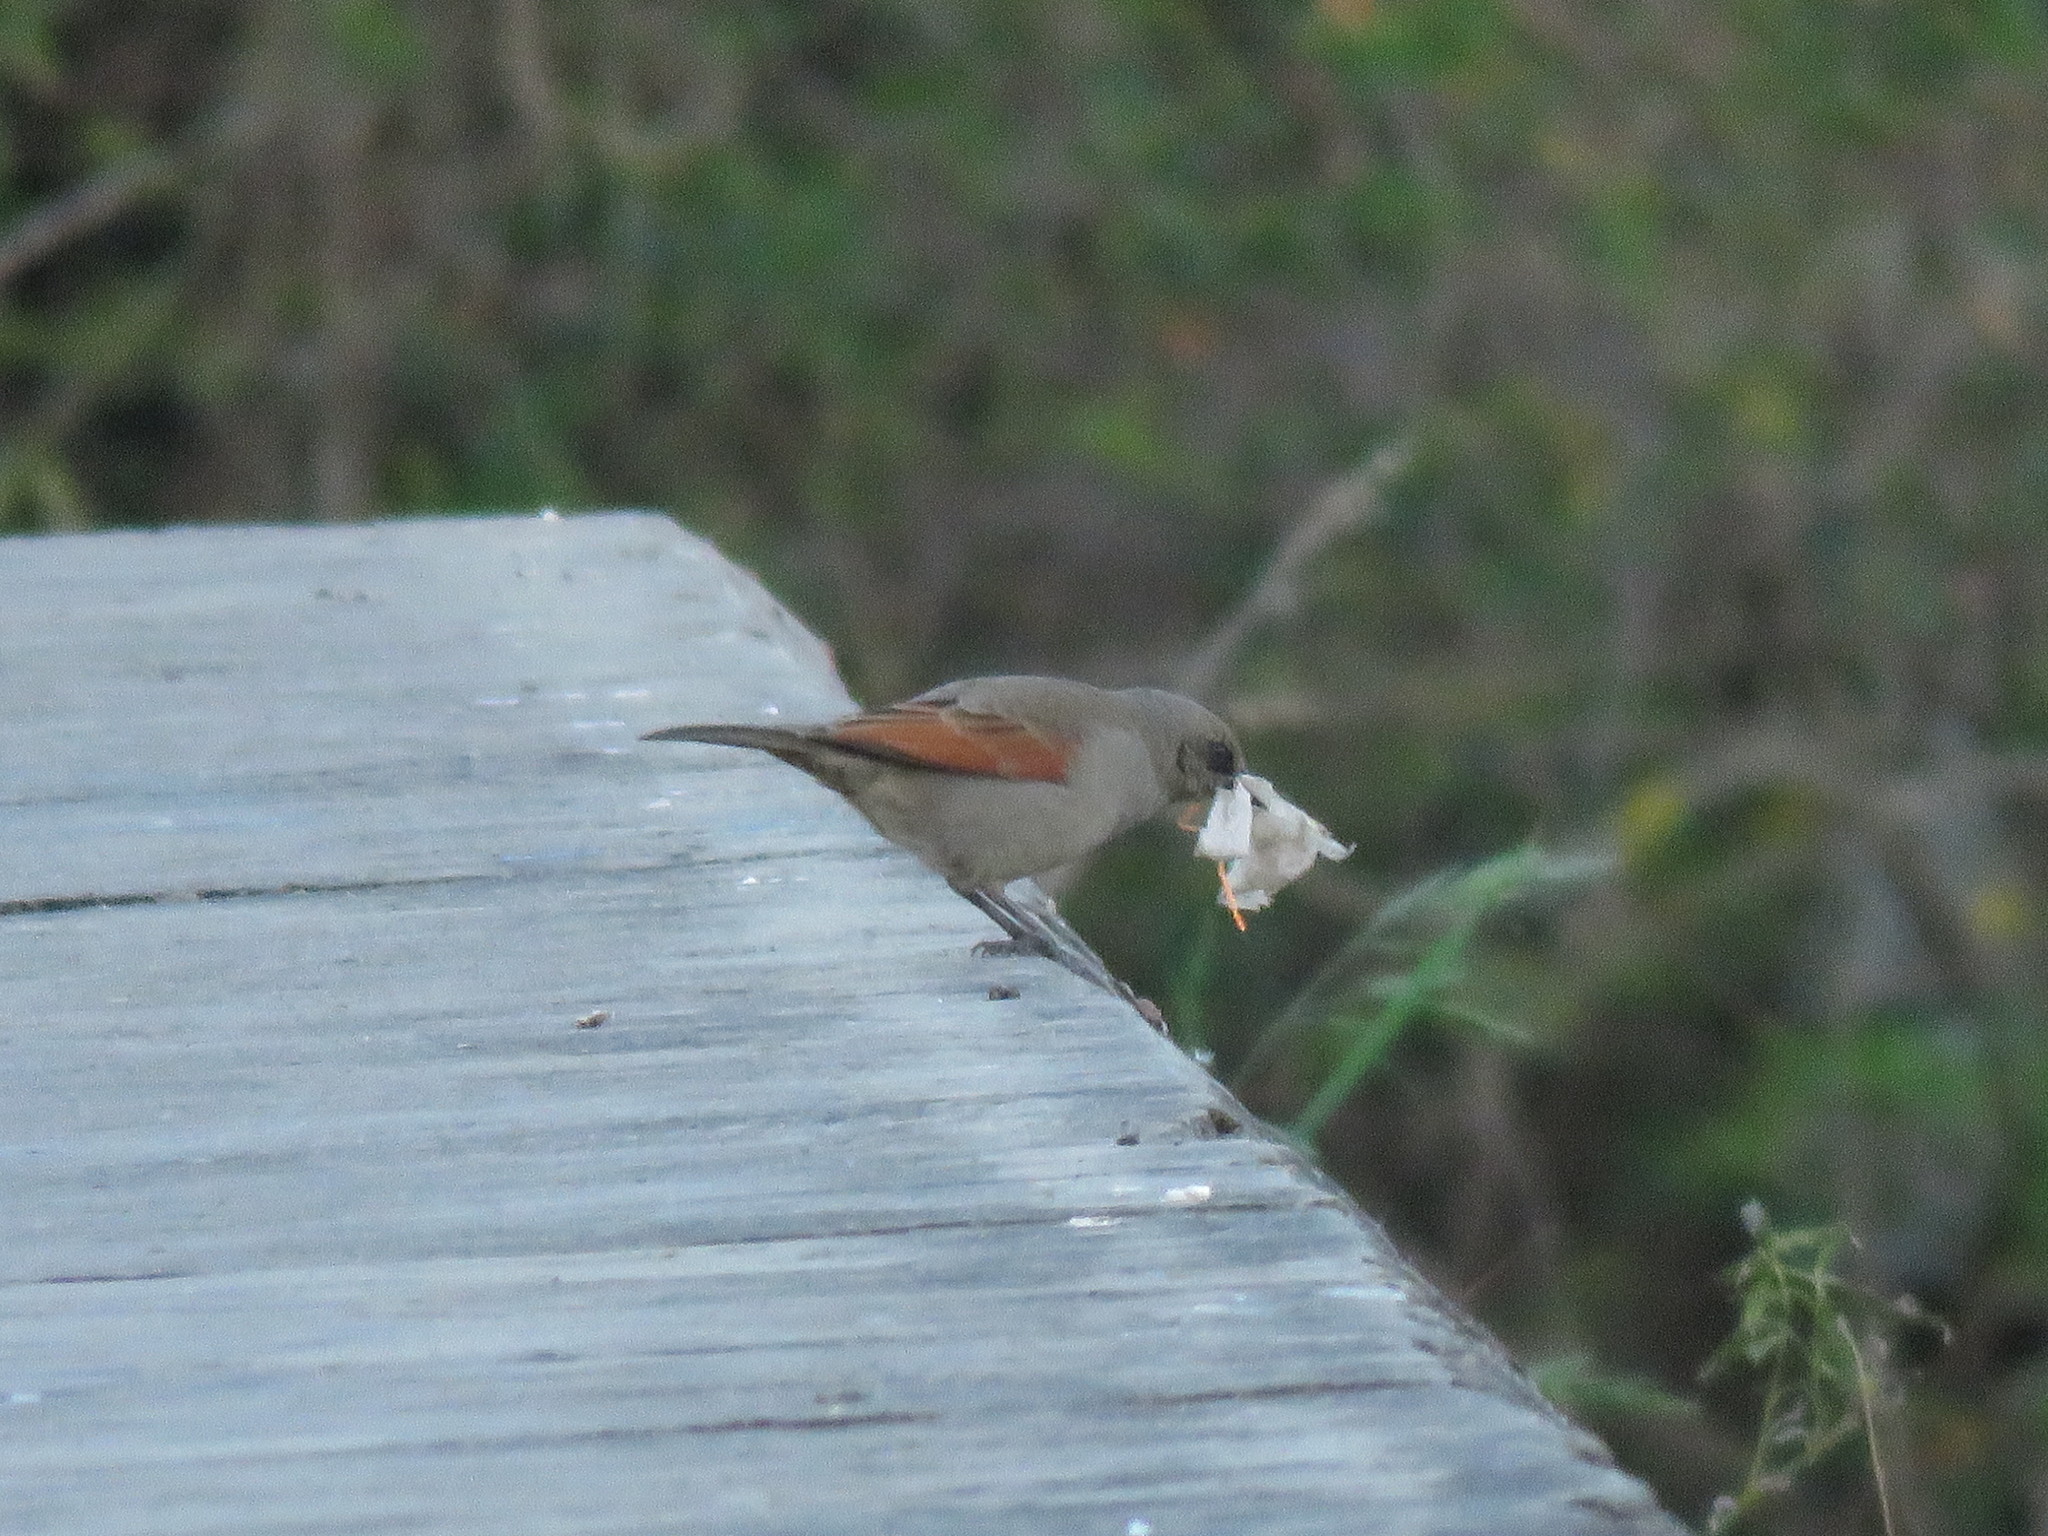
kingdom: Animalia
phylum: Chordata
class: Aves
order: Passeriformes
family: Icteridae
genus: Agelaioides
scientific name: Agelaioides badius
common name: Baywing
